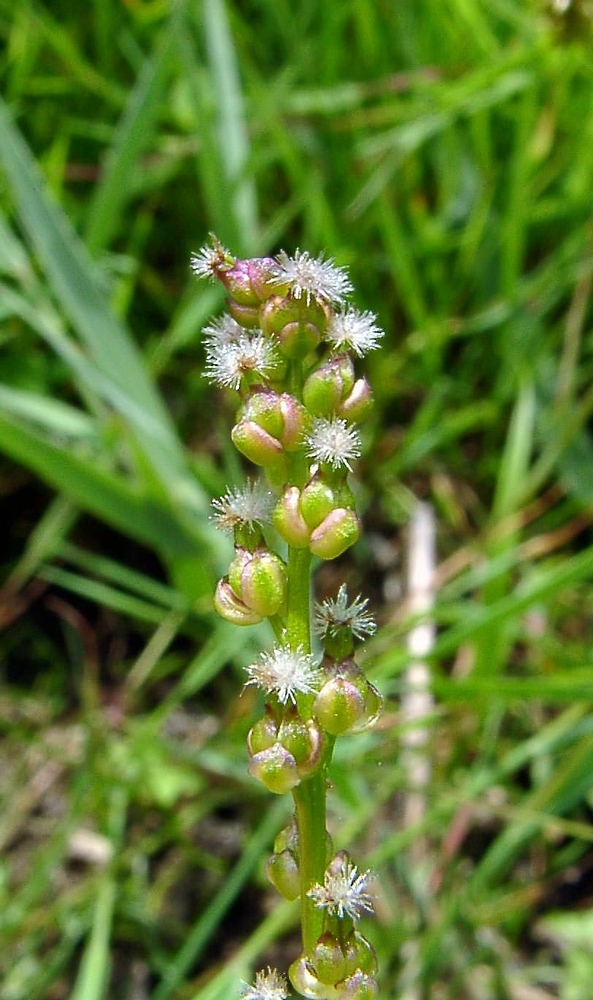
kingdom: Plantae
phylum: Tracheophyta
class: Liliopsida
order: Alismatales
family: Juncaginaceae
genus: Triglochin
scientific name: Triglochin maritima
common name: Sea arrowgrass
